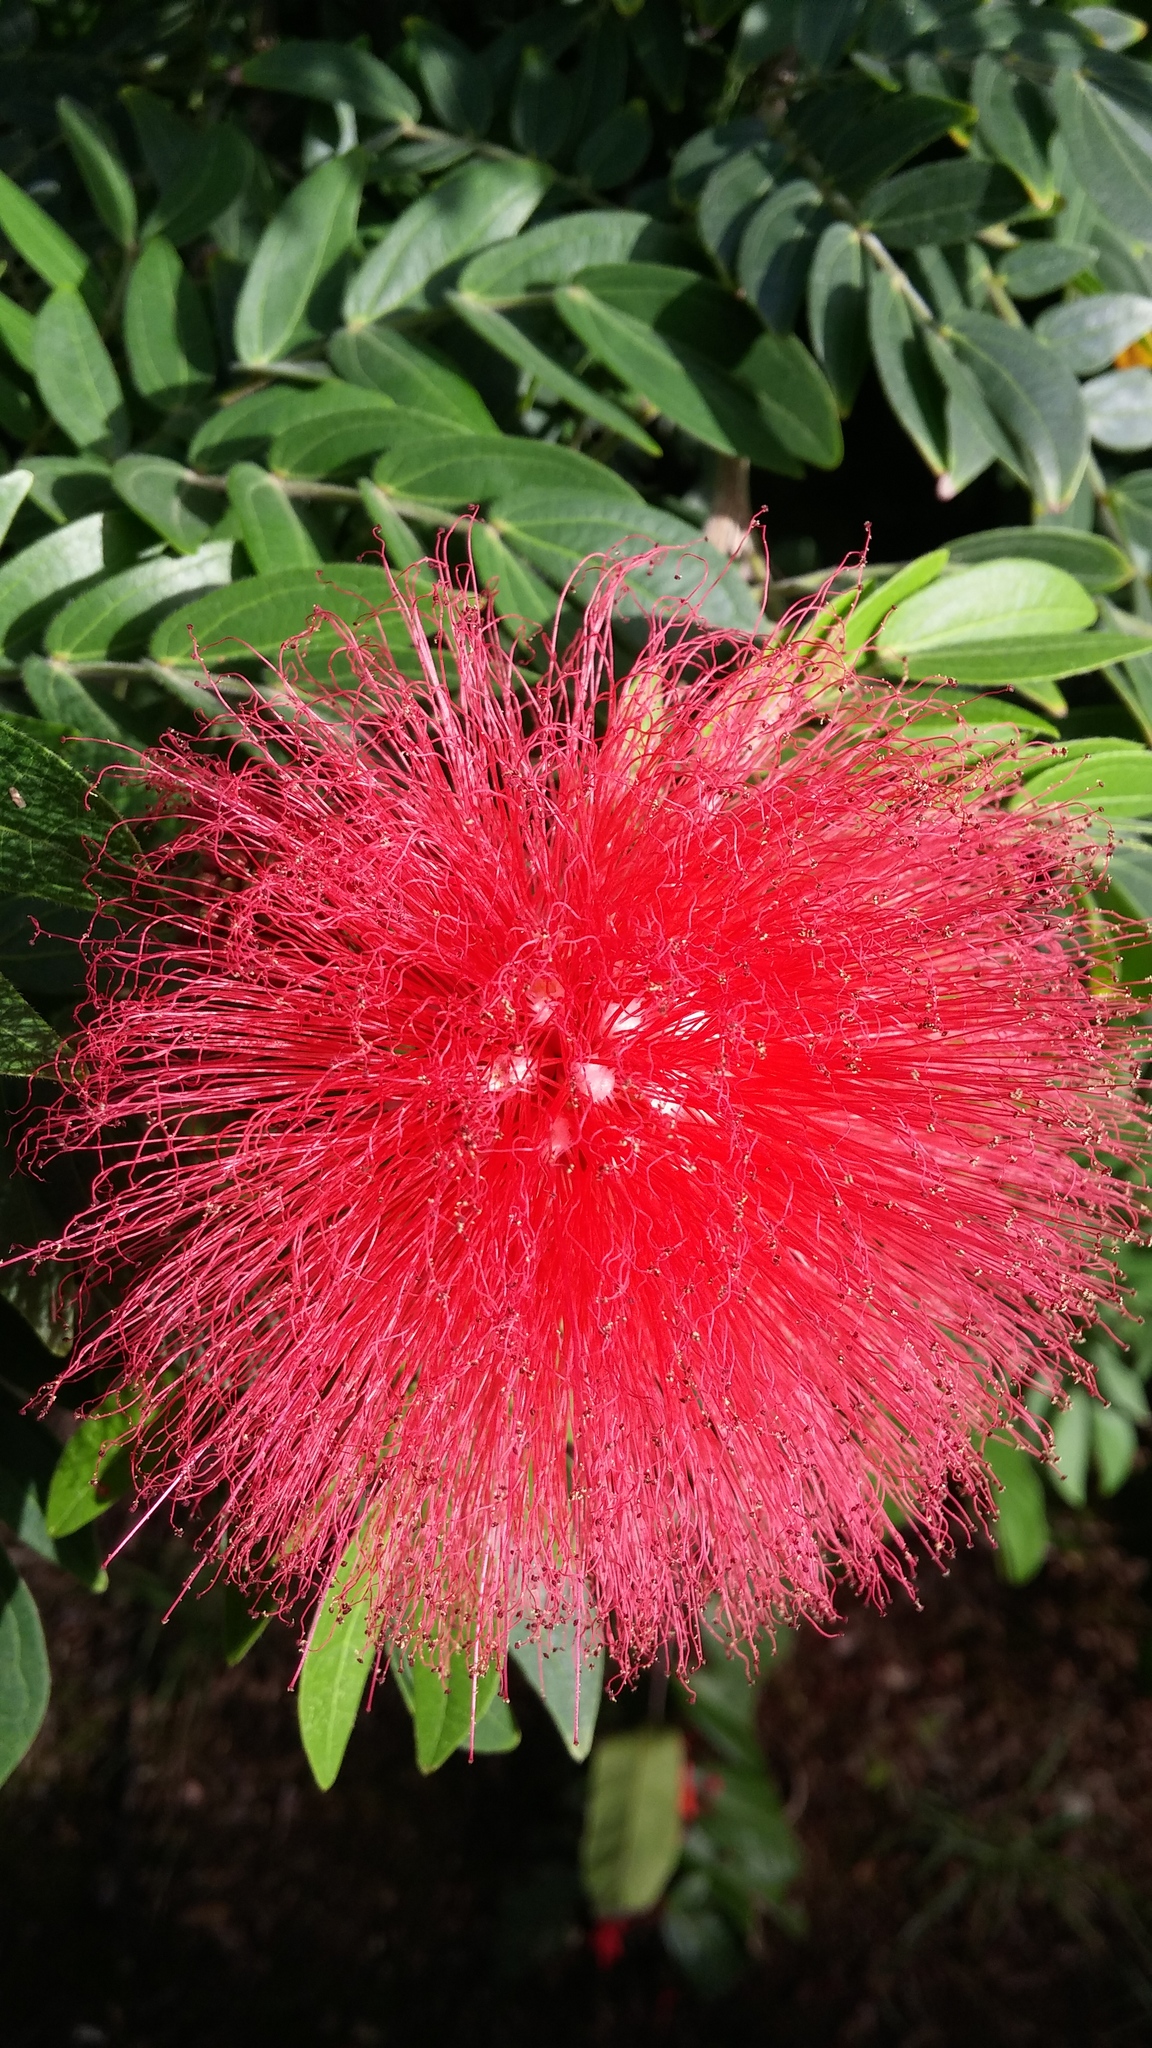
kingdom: Plantae
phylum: Tracheophyta
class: Magnoliopsida
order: Fabales
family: Fabaceae
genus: Calliandra
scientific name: Calliandra haematocephala
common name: Blood red tassel flower
